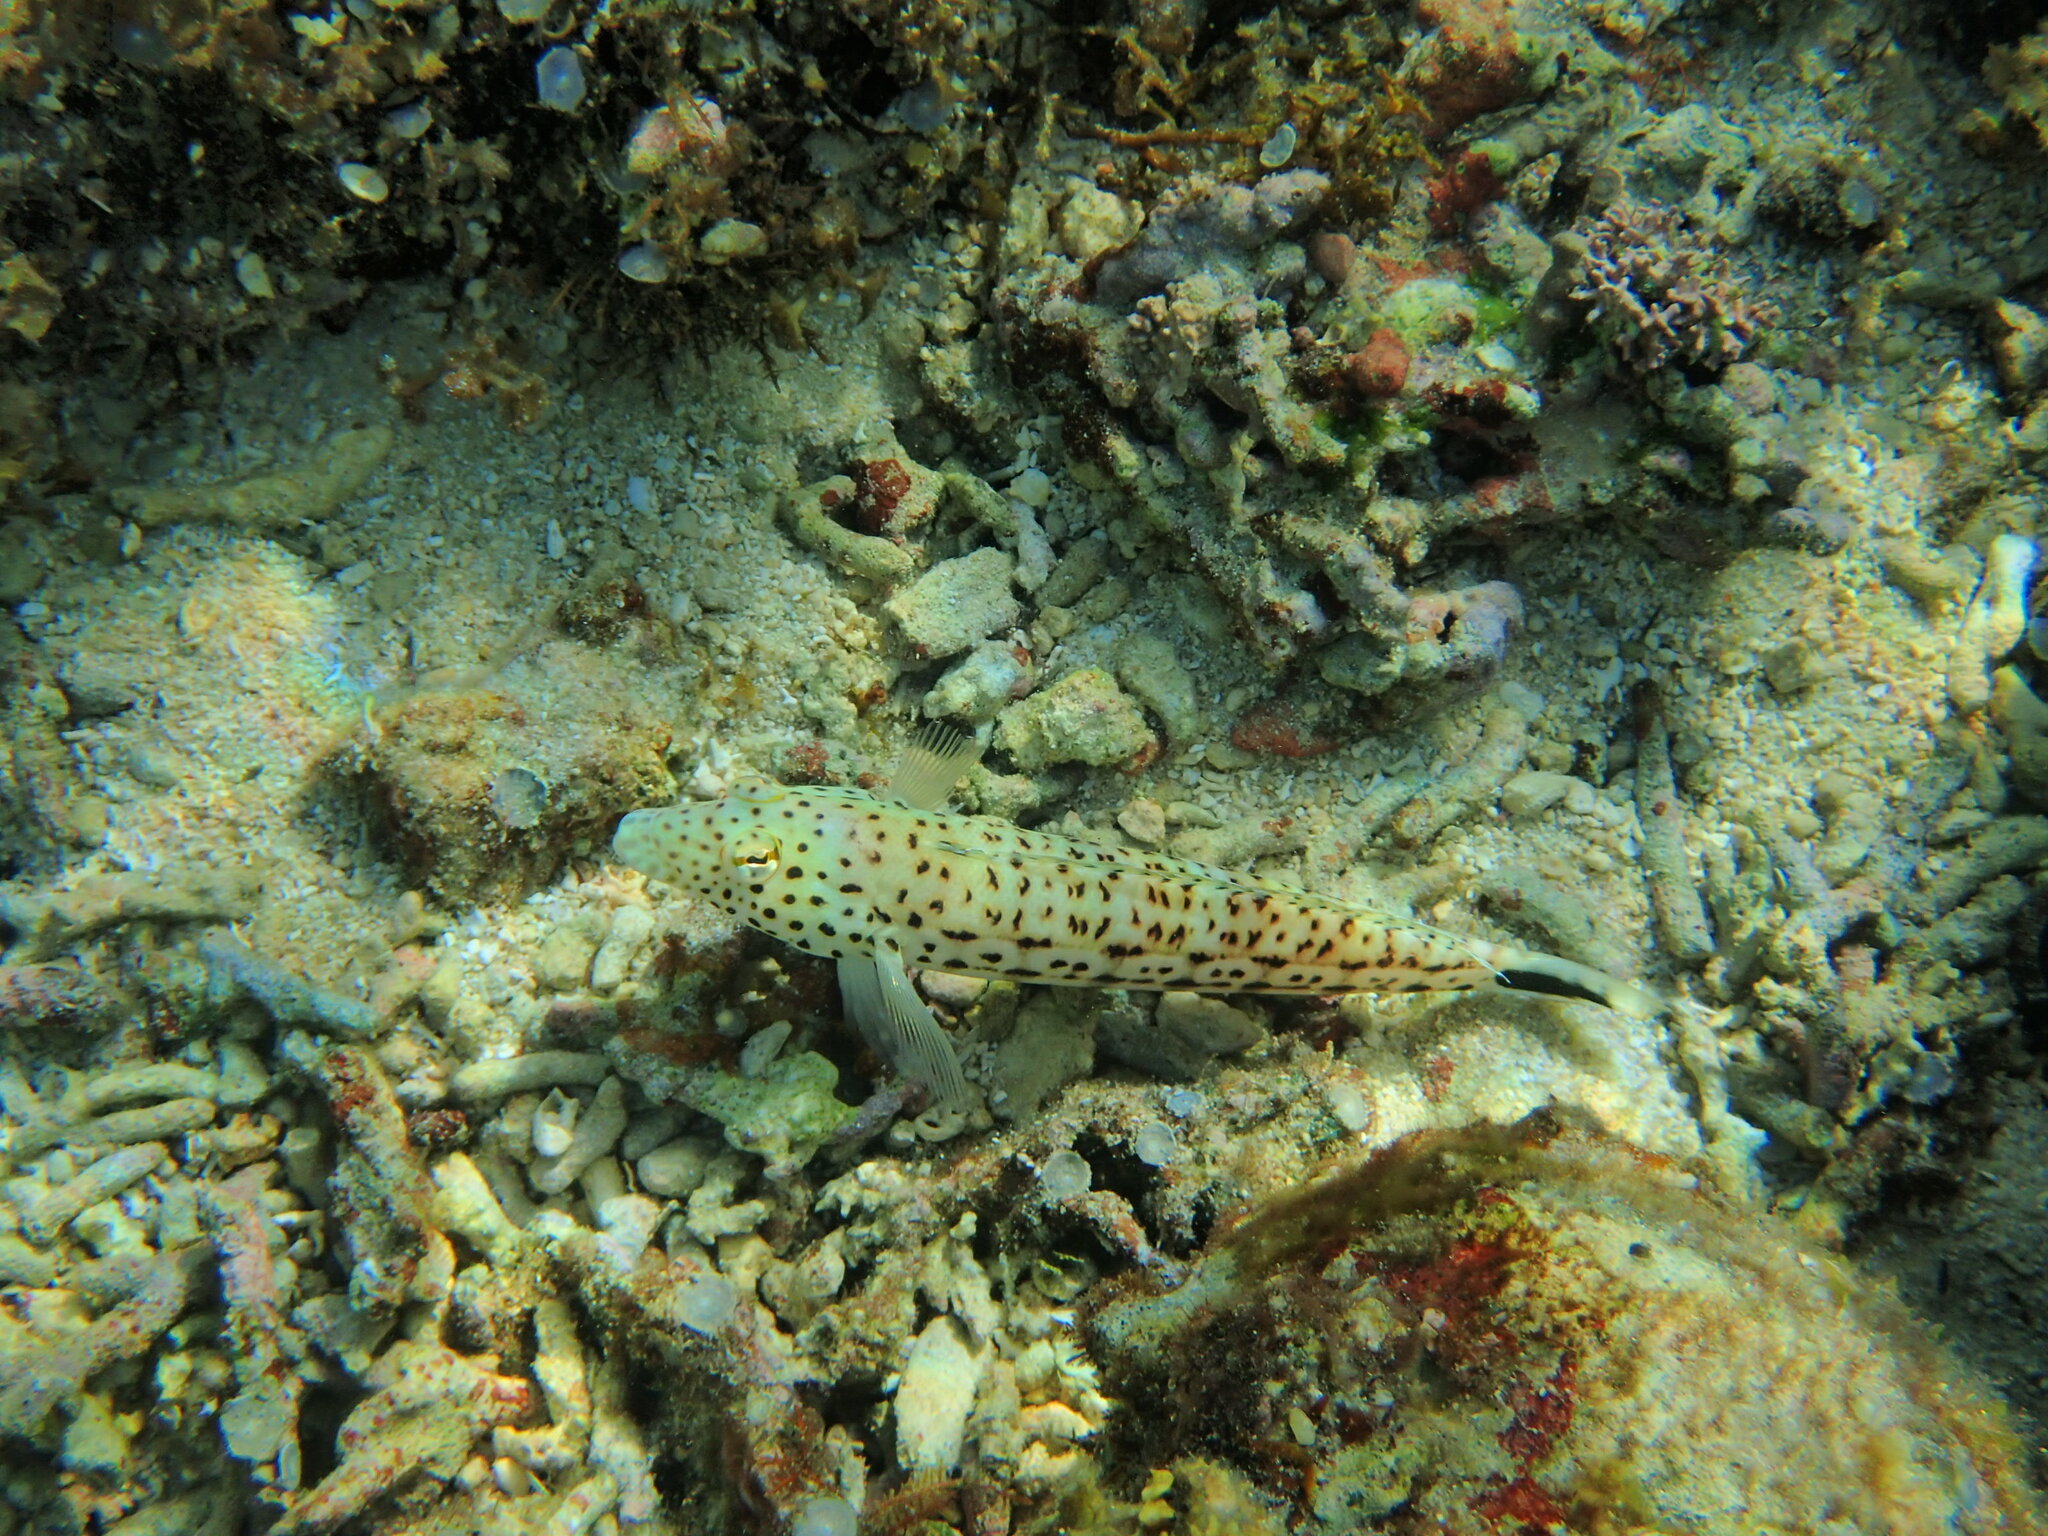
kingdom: Animalia
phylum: Chordata
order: Perciformes
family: Pinguipedidae
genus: Parapercis
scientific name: Parapercis pacifica
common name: Speckled sandperch
